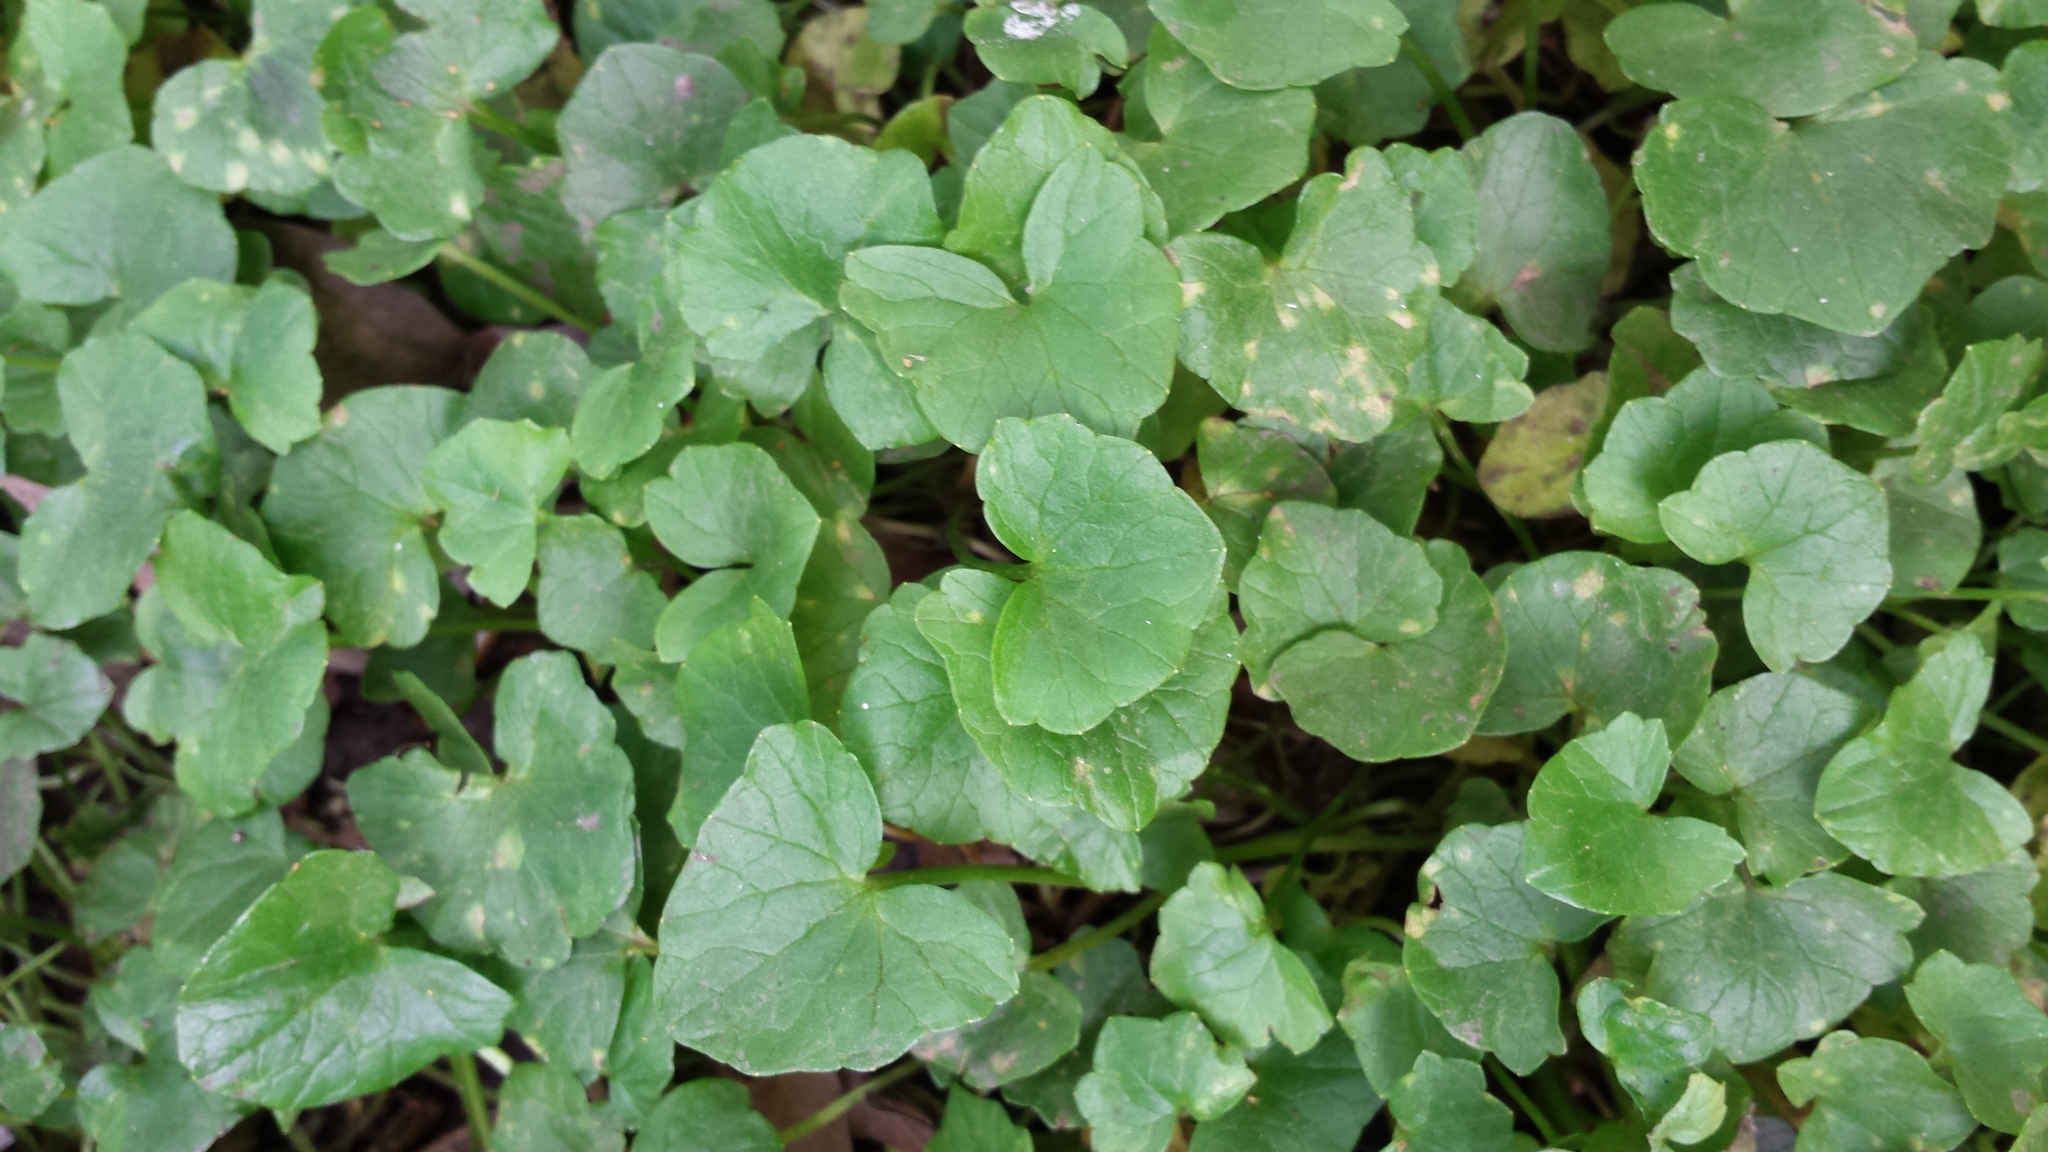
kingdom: Plantae
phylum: Tracheophyta
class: Magnoliopsida
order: Ranunculales
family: Ranunculaceae
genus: Ficaria
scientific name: Ficaria verna
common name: Lesser celandine
